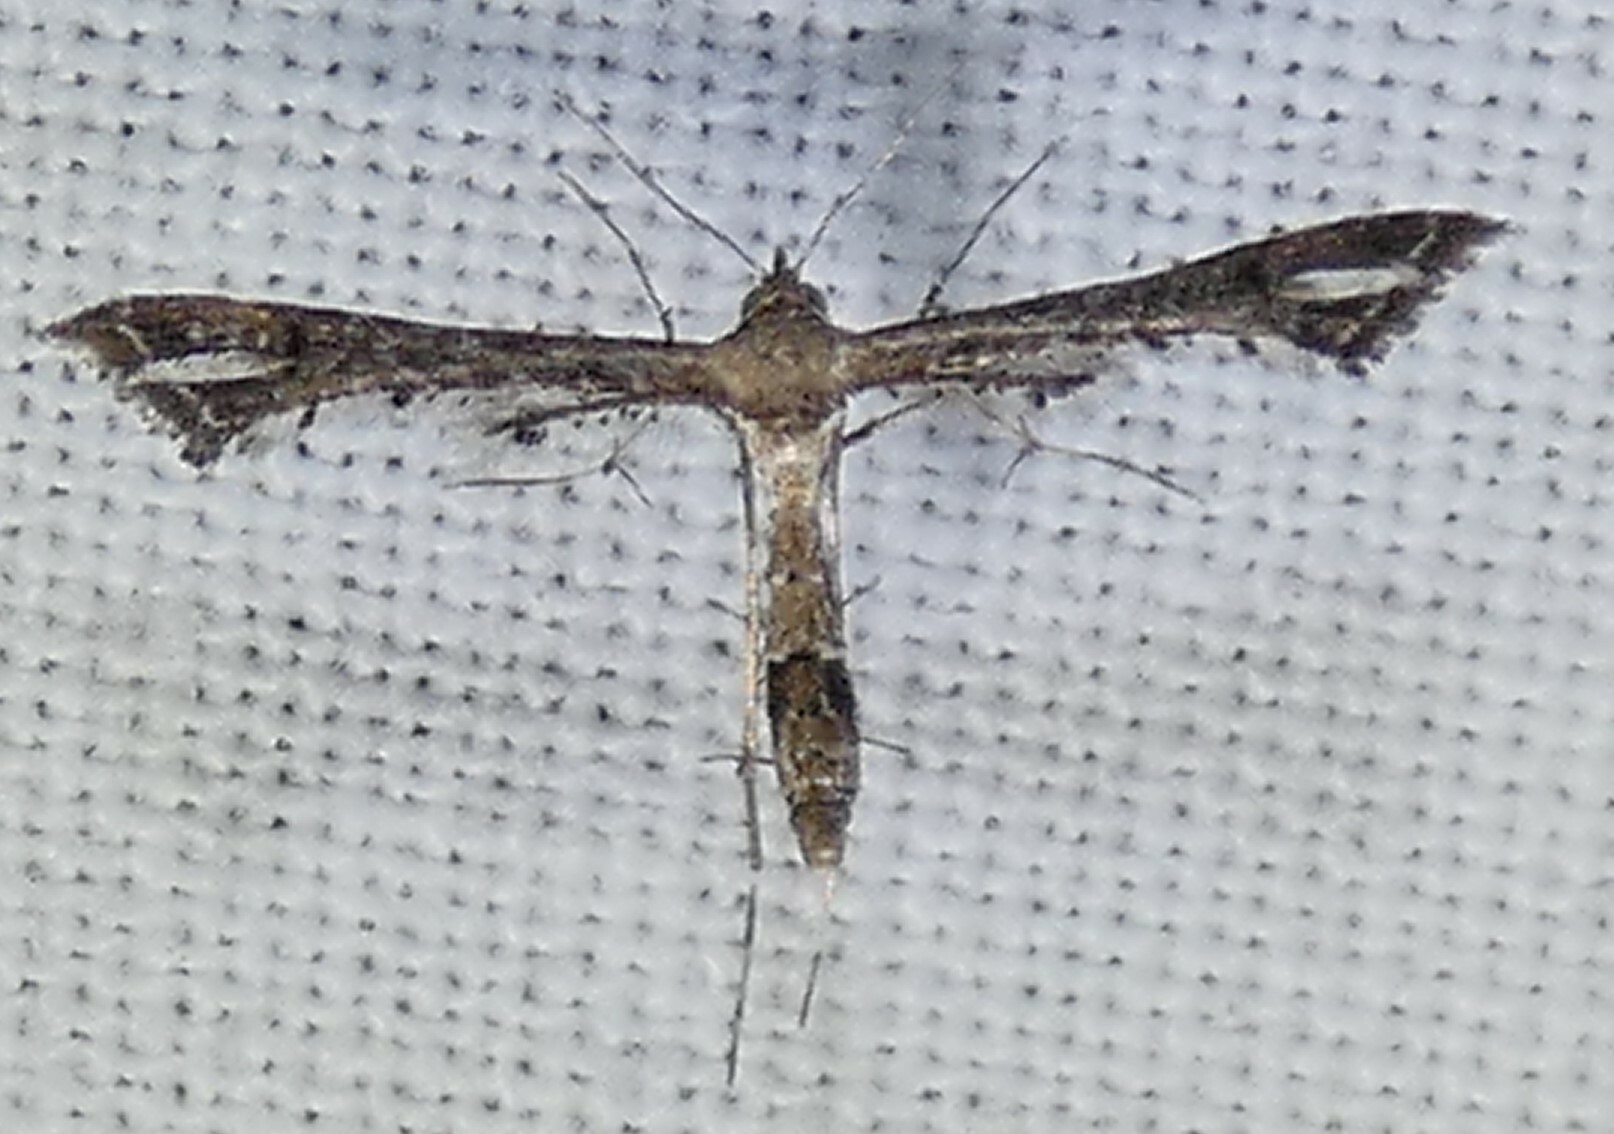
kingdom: Animalia
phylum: Arthropoda
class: Insecta
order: Lepidoptera
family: Pterophoridae
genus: Lantanophaga
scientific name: Lantanophaga pusillidactylus
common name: Moth
